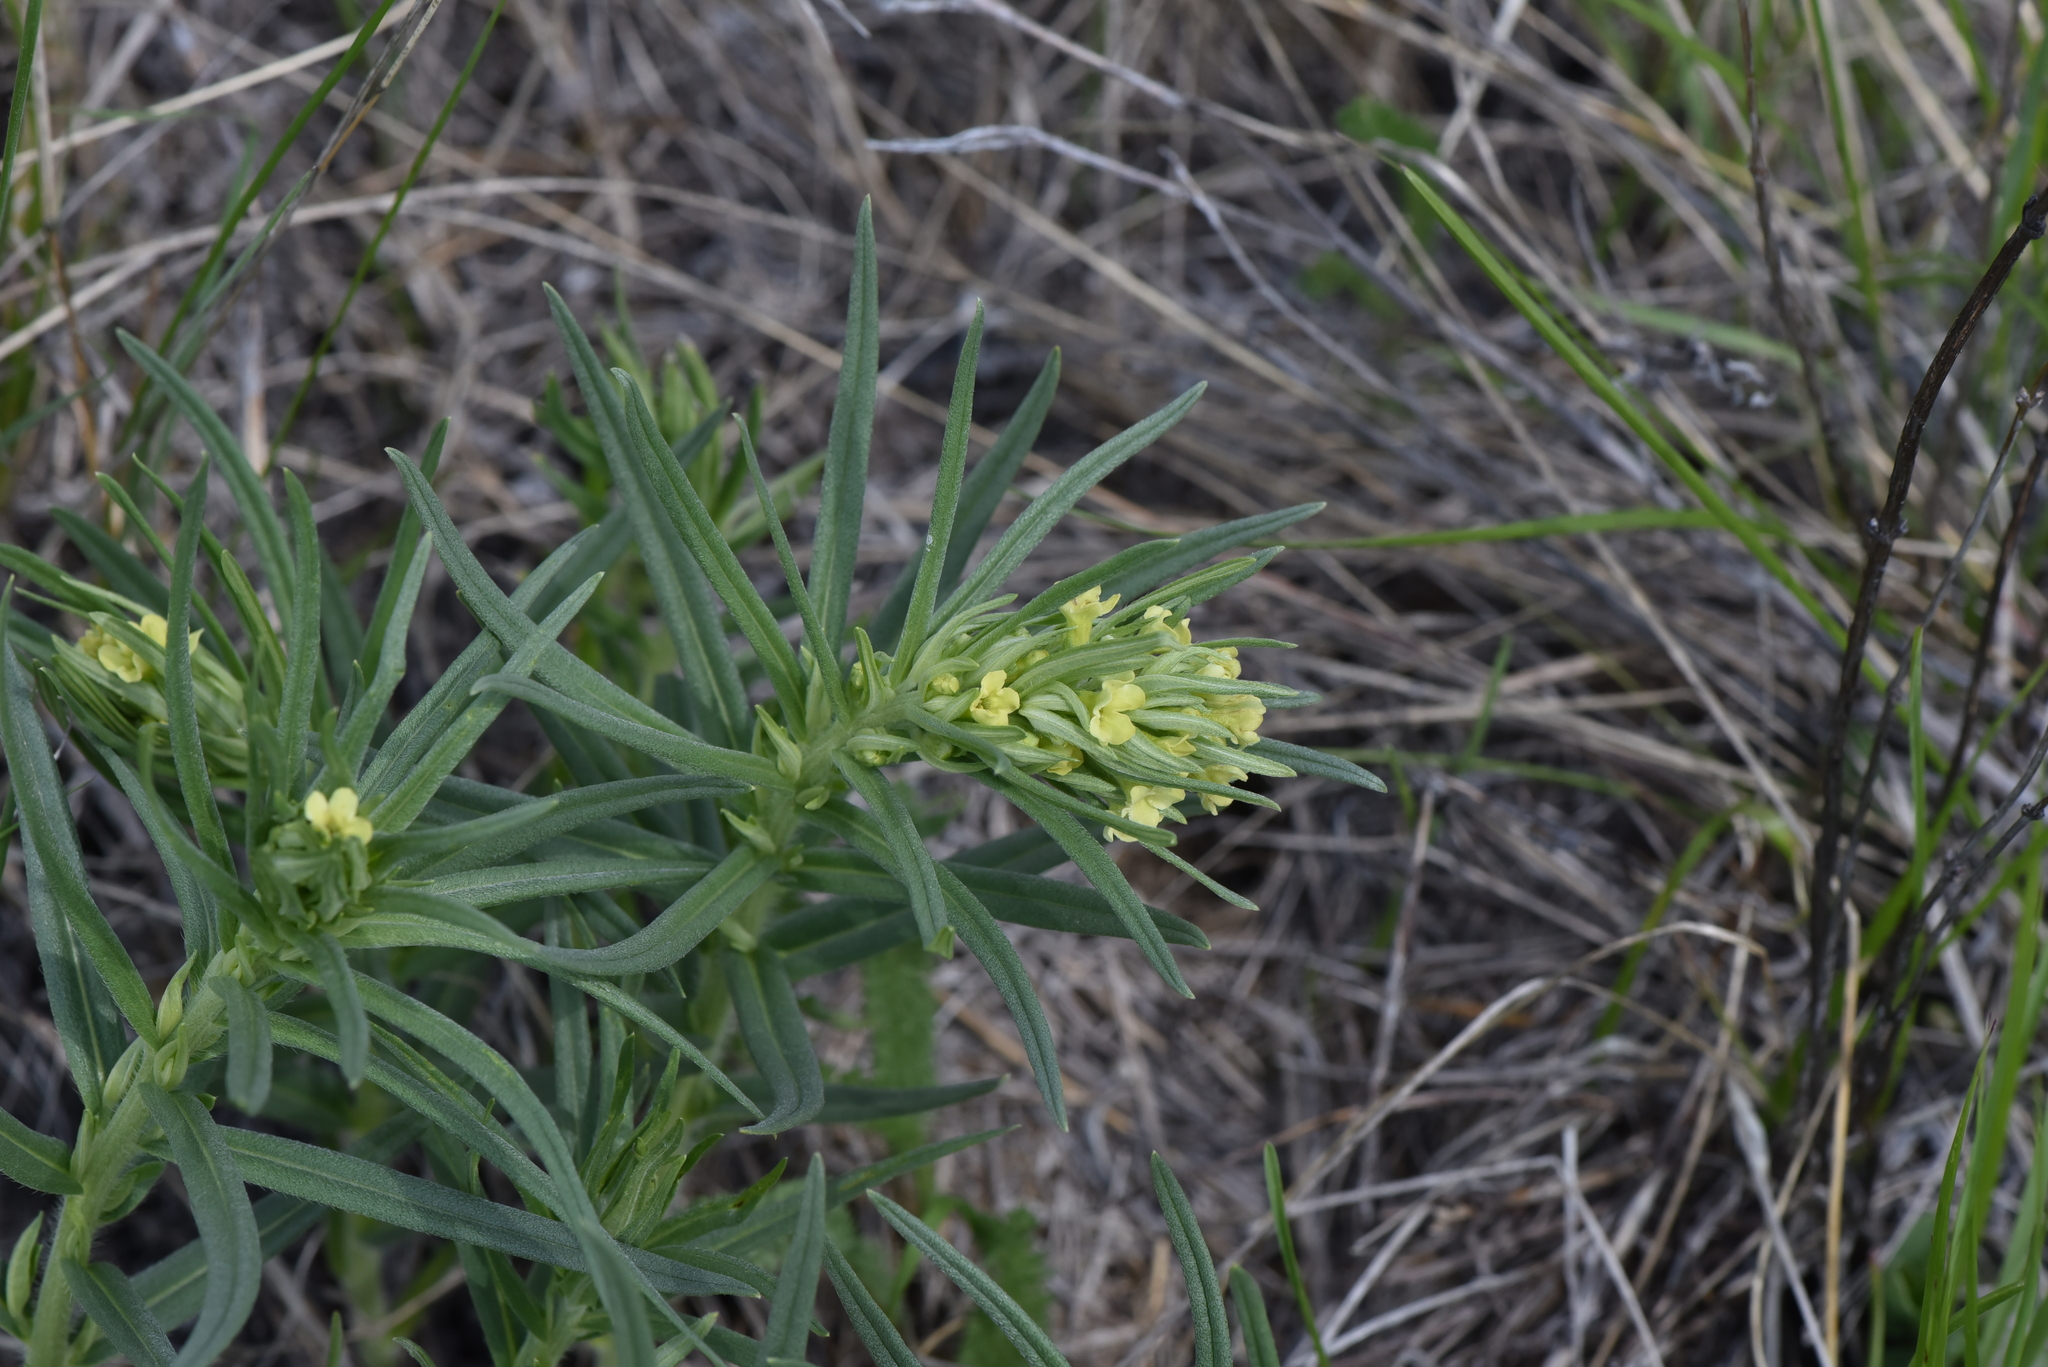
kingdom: Plantae
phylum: Tracheophyta
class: Magnoliopsida
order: Boraginales
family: Boraginaceae
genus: Lithospermum
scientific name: Lithospermum ruderale
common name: Western gromwell
